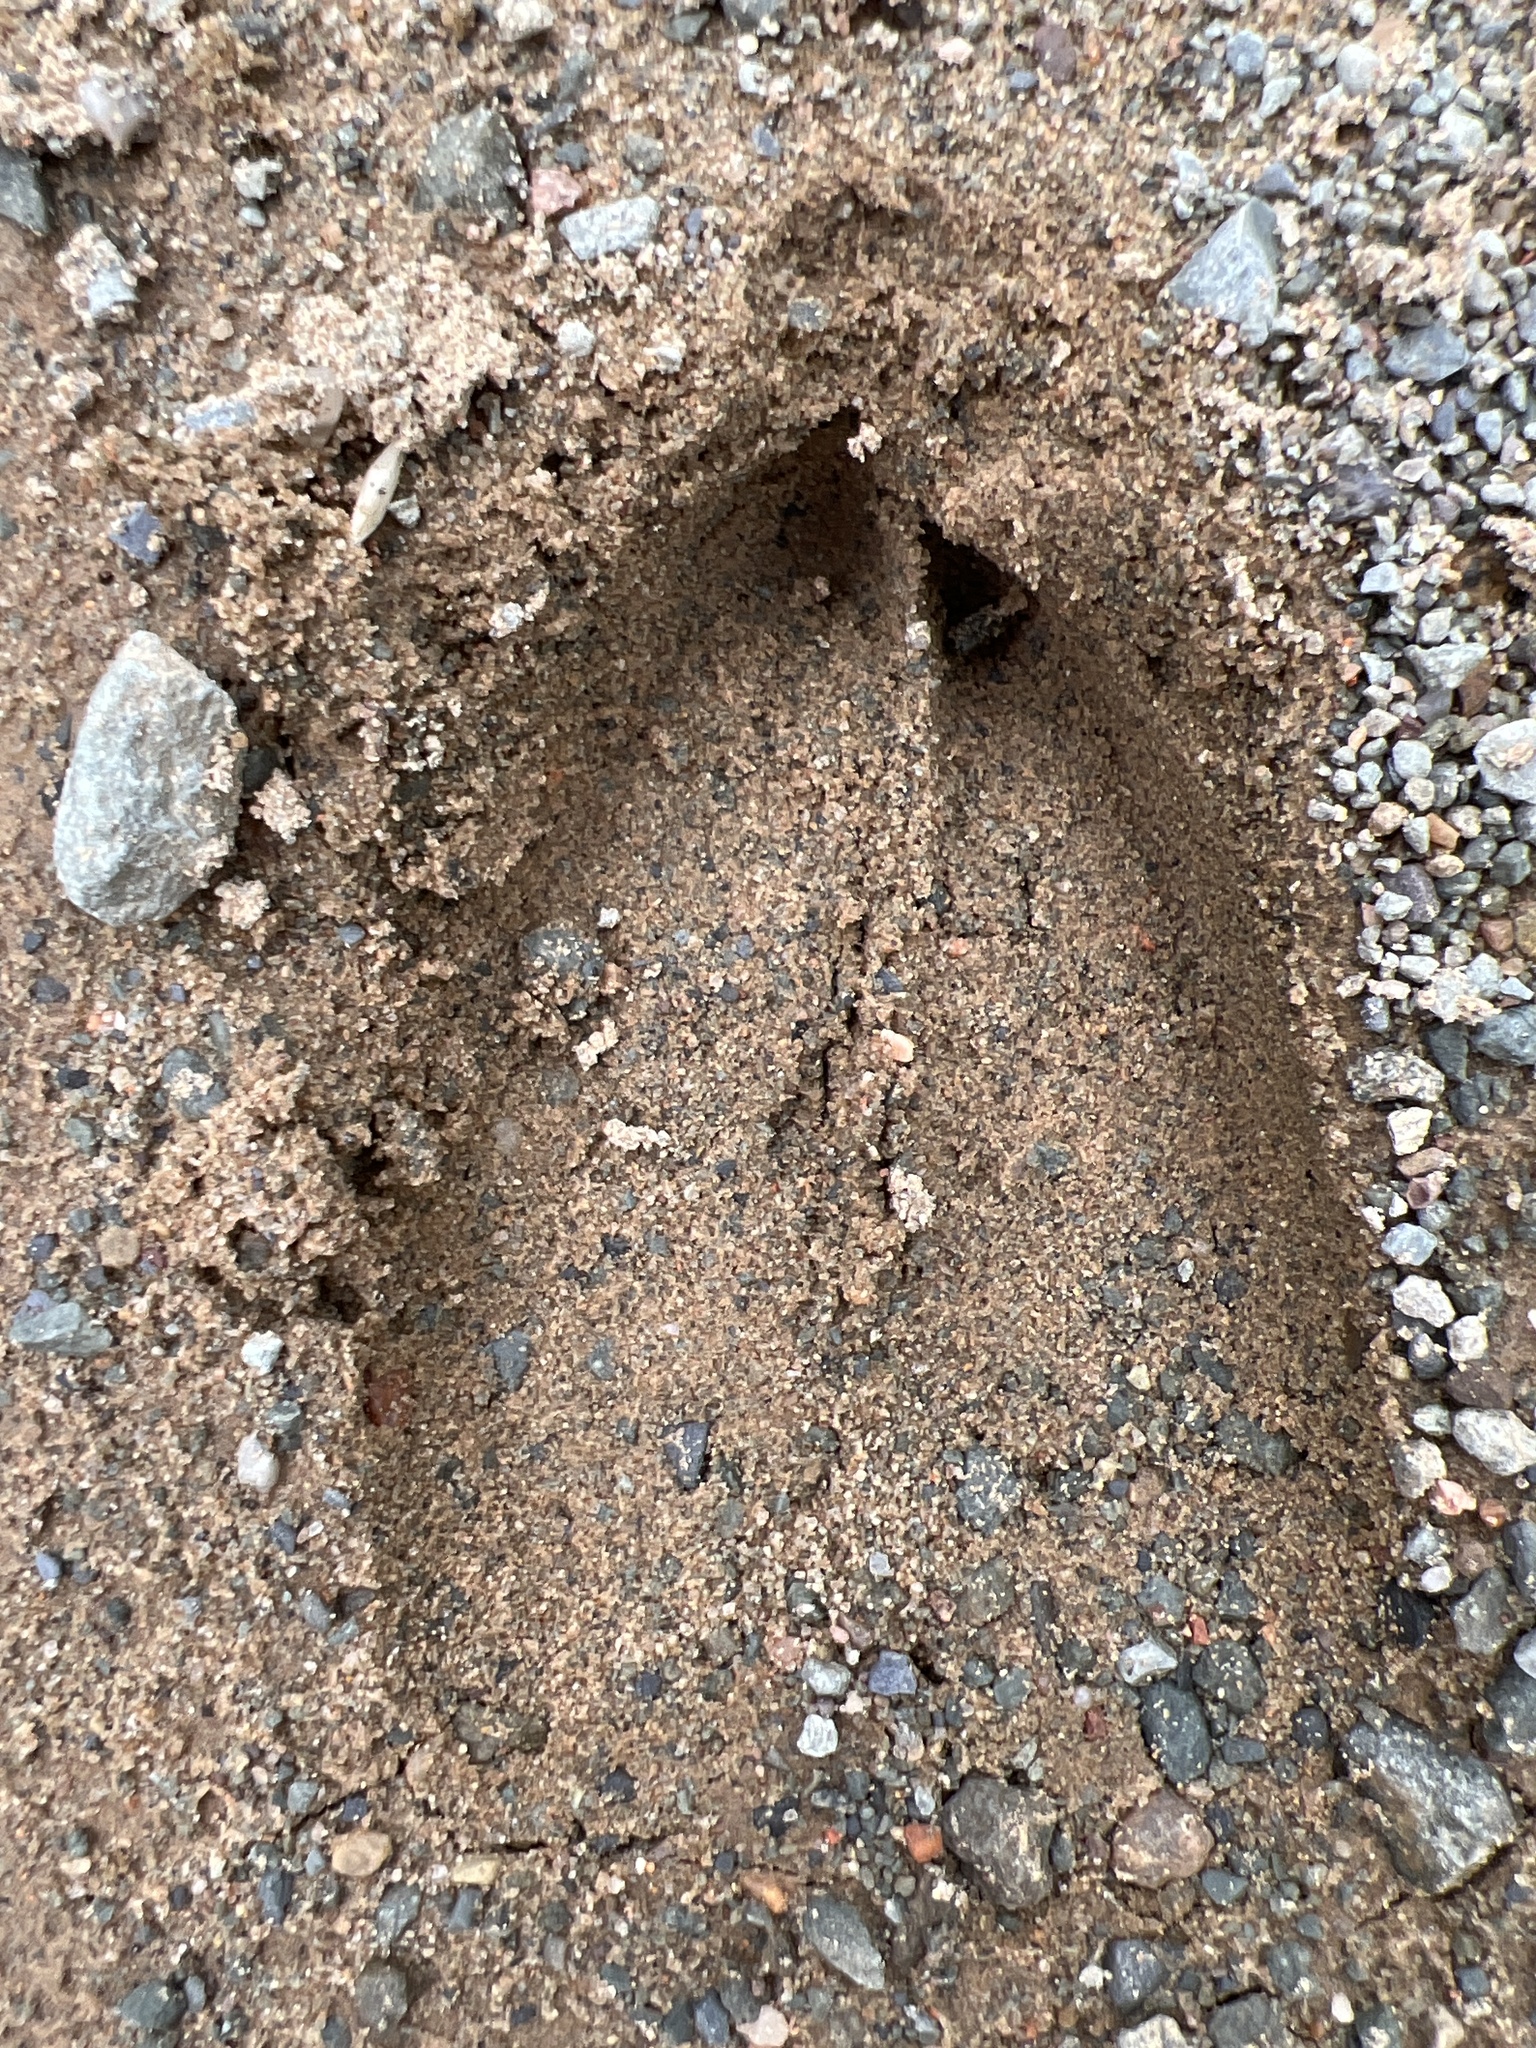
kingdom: Animalia
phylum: Chordata
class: Mammalia
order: Artiodactyla
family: Cervidae
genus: Odocoileus
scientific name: Odocoileus virginianus
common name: White-tailed deer
